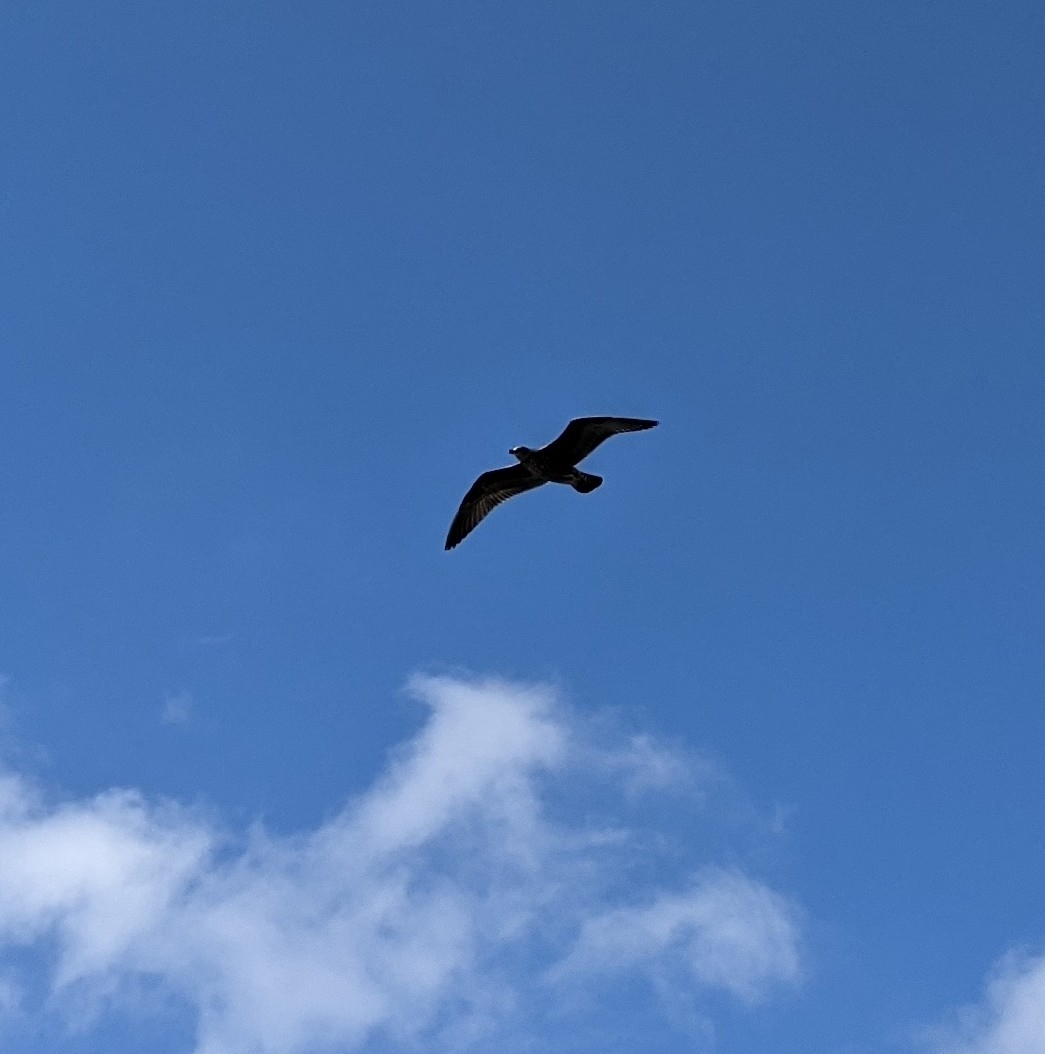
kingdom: Animalia
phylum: Chordata
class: Aves
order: Charadriiformes
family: Laridae
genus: Larus
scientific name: Larus dominicanus
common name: Kelp gull
